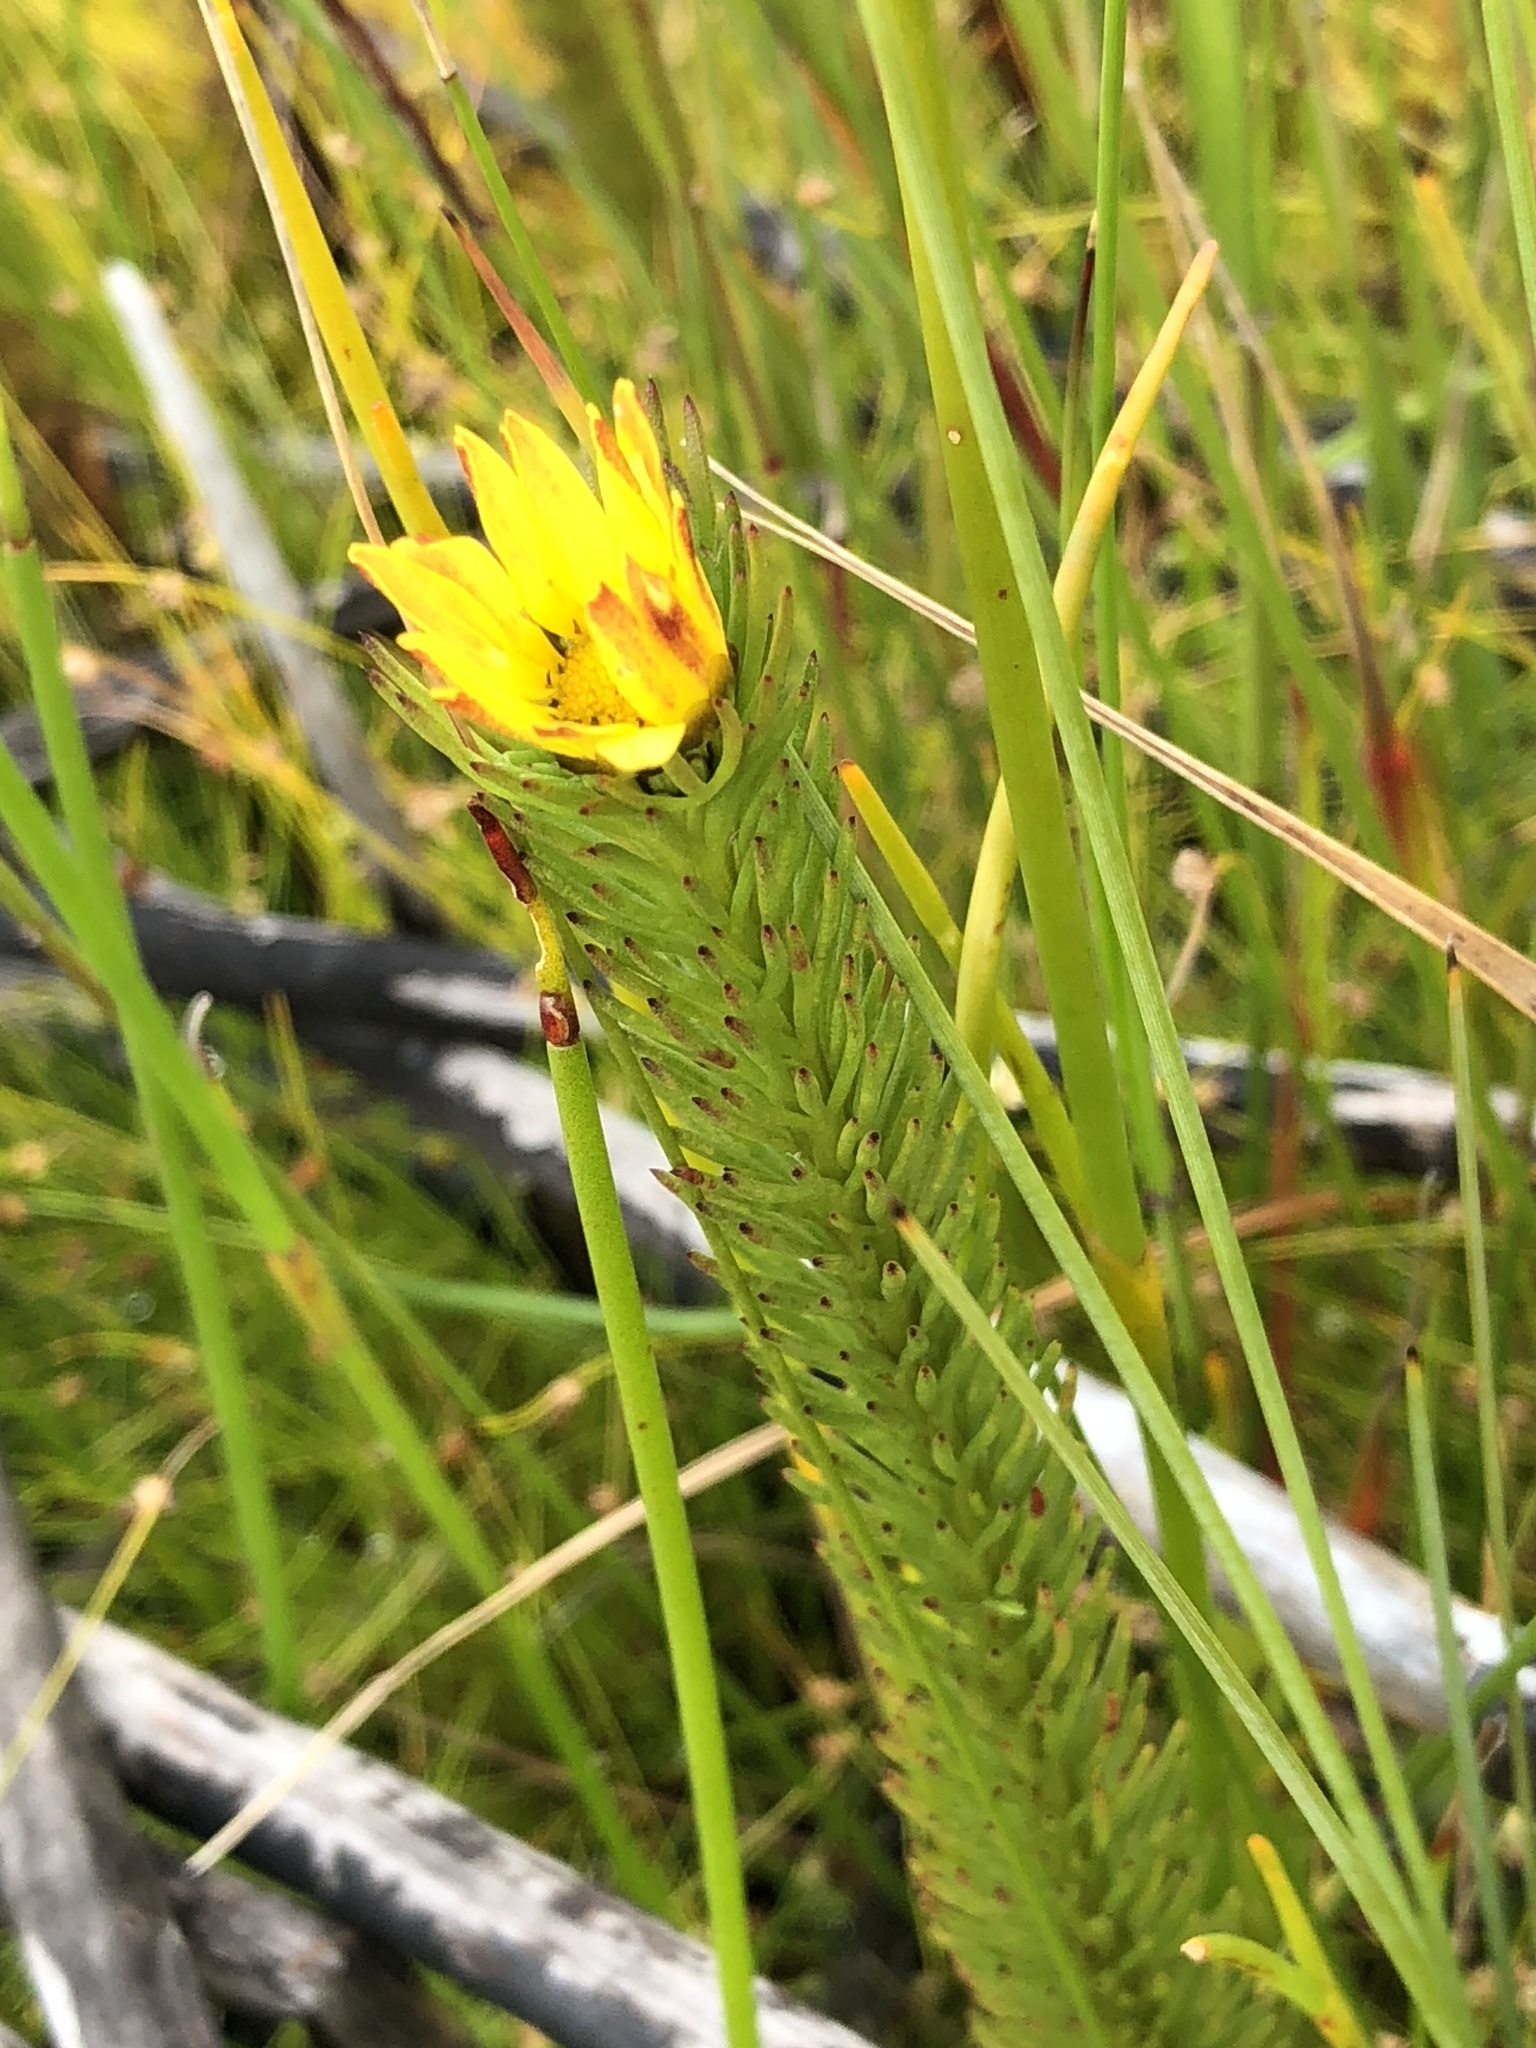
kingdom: Plantae
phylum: Tracheophyta
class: Magnoliopsida
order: Asterales
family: Asteraceae
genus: Ursinia
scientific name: Ursinia quinquepartita
